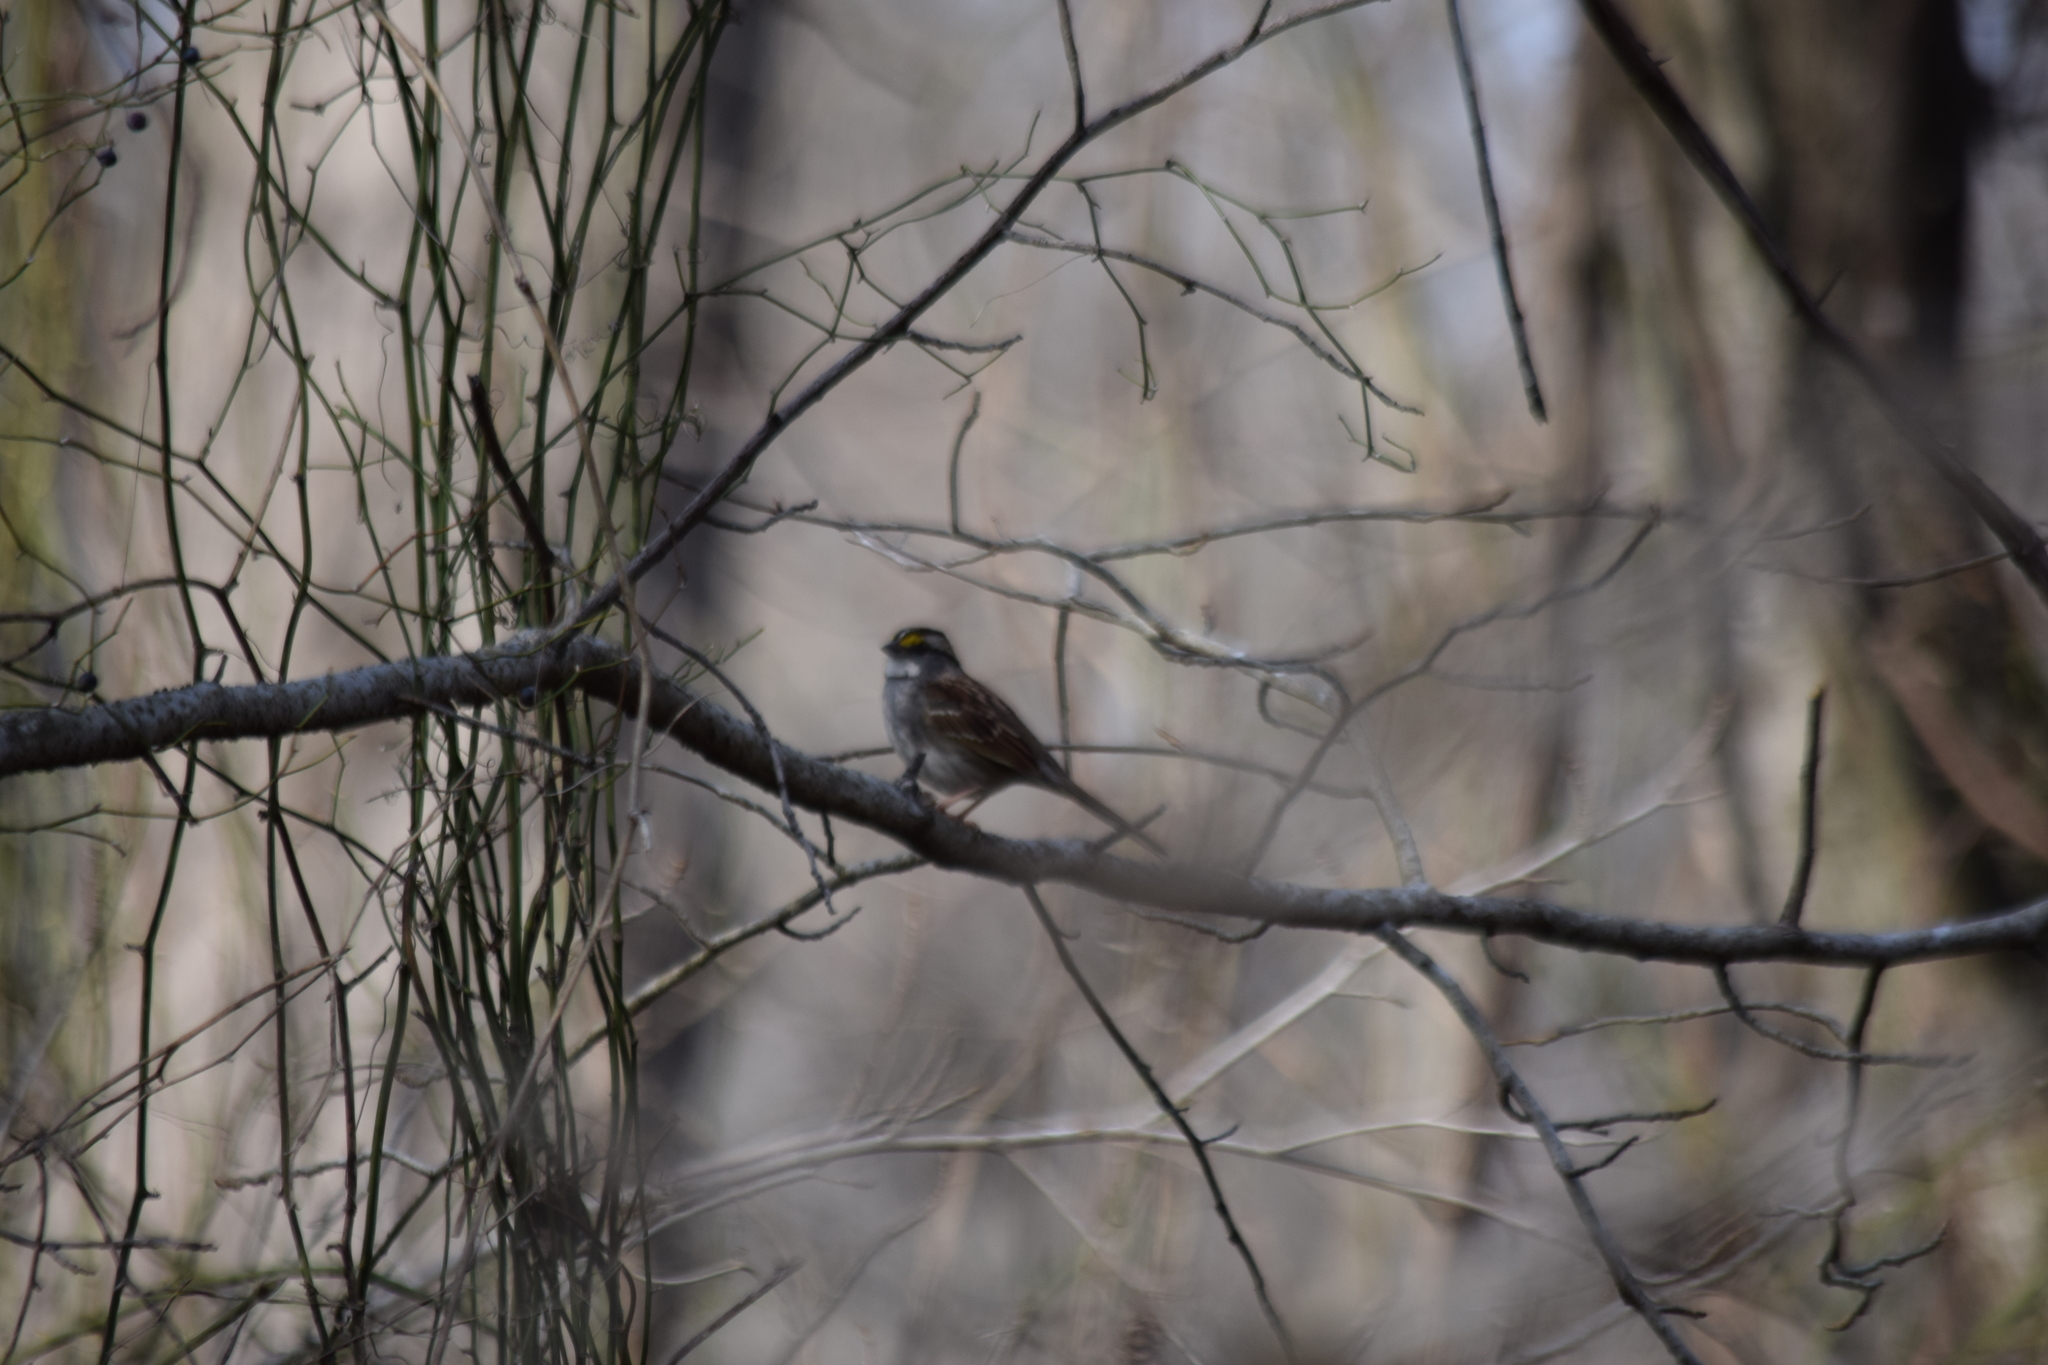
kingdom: Animalia
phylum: Chordata
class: Aves
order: Passeriformes
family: Passerellidae
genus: Zonotrichia
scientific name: Zonotrichia albicollis
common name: White-throated sparrow
